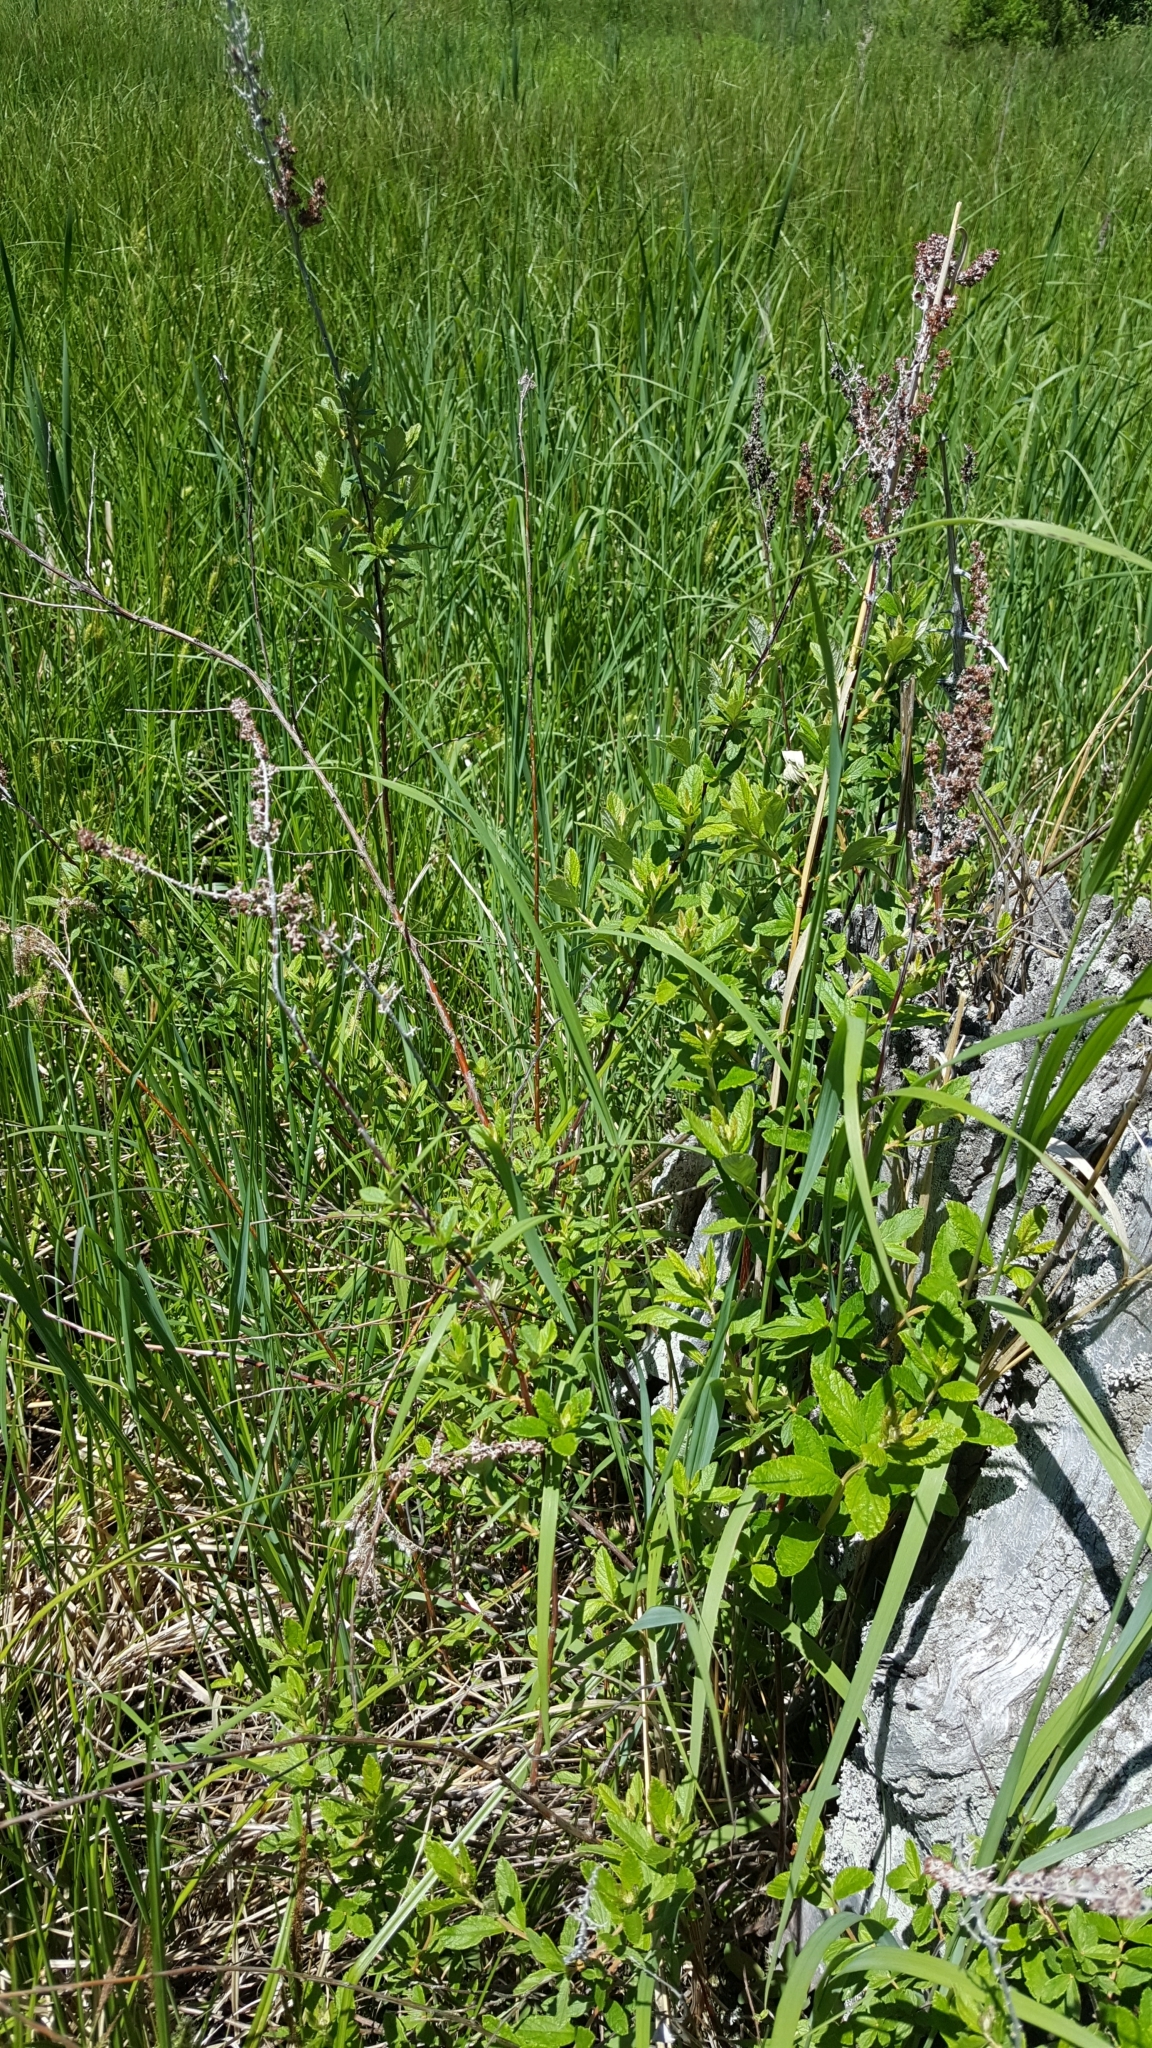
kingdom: Plantae
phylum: Tracheophyta
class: Magnoliopsida
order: Rosales
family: Rosaceae
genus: Spiraea
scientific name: Spiraea tomentosa
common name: Hardhack
